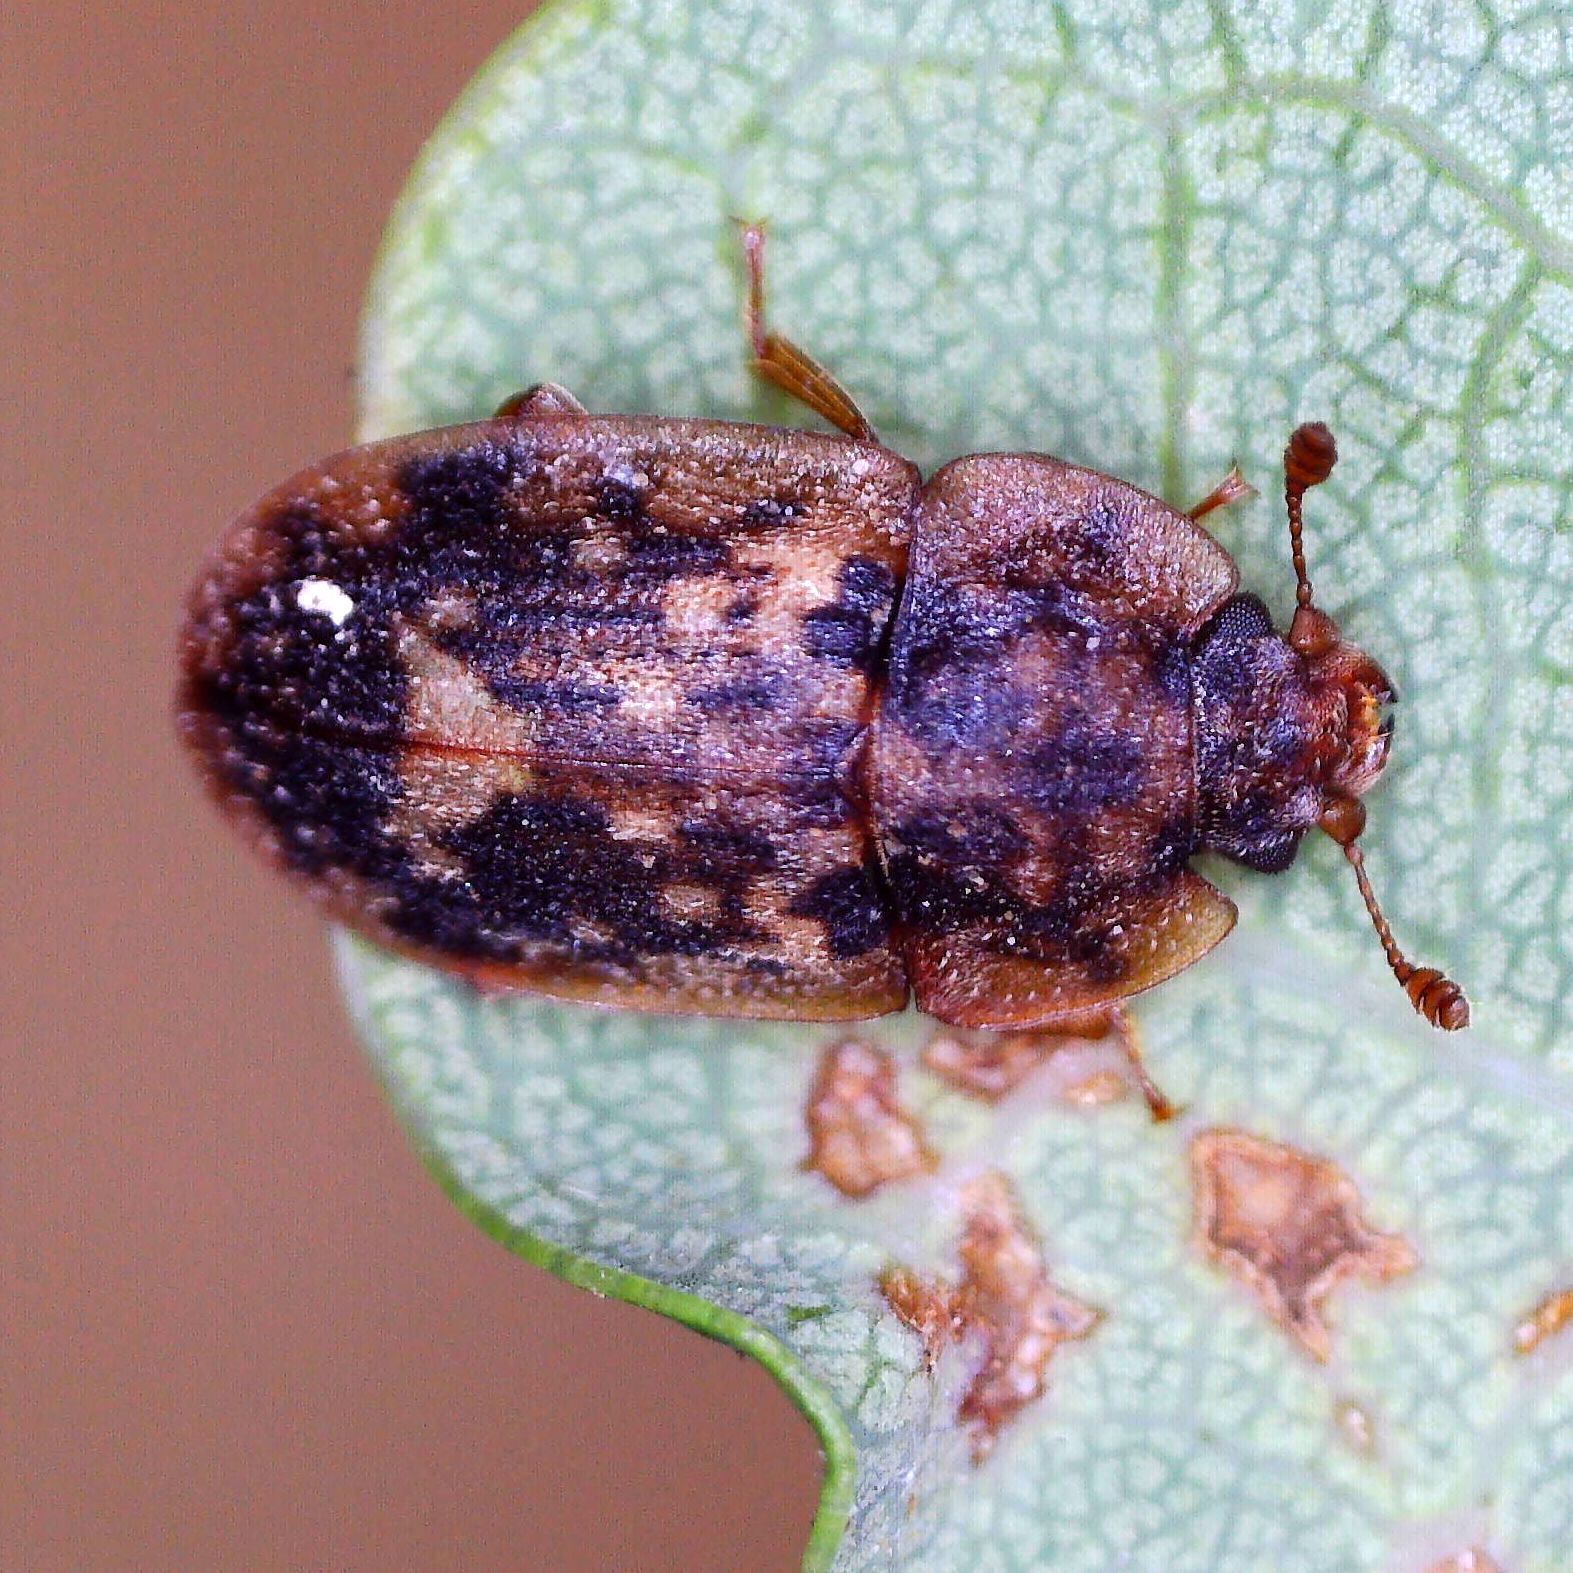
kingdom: Animalia
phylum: Arthropoda
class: Insecta
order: Coleoptera
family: Nitidulidae
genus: Soronia
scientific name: Soronia grisea
